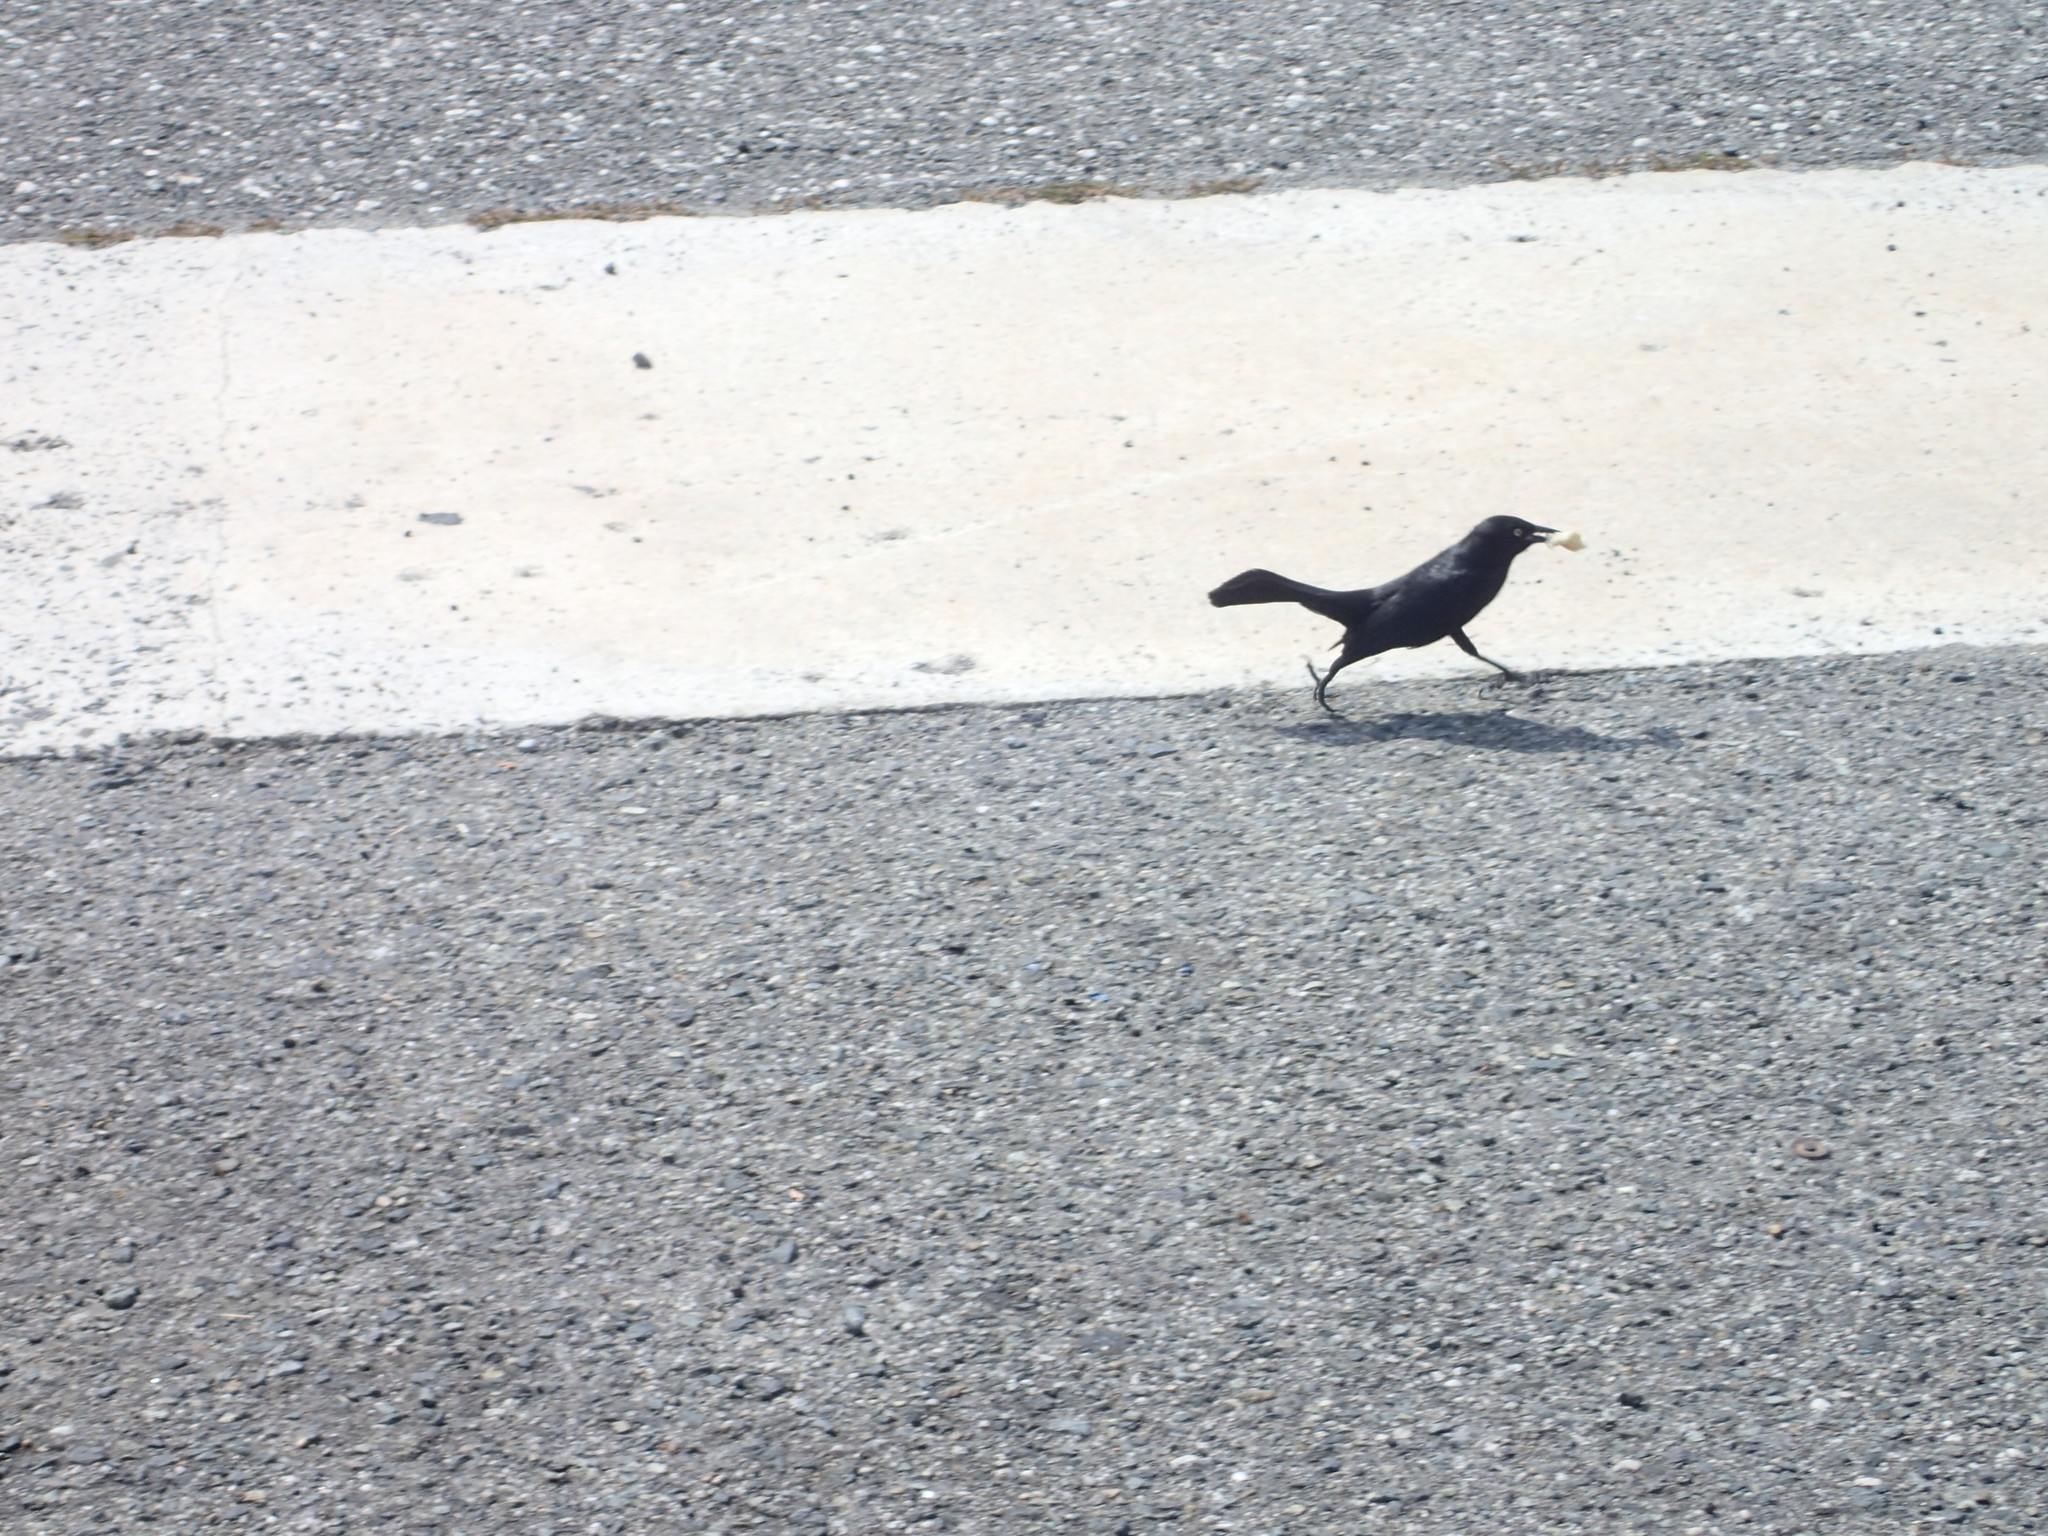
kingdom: Animalia
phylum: Chordata
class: Aves
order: Passeriformes
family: Icteridae
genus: Quiscalus
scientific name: Quiscalus niger
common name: Greater antillean grackle
